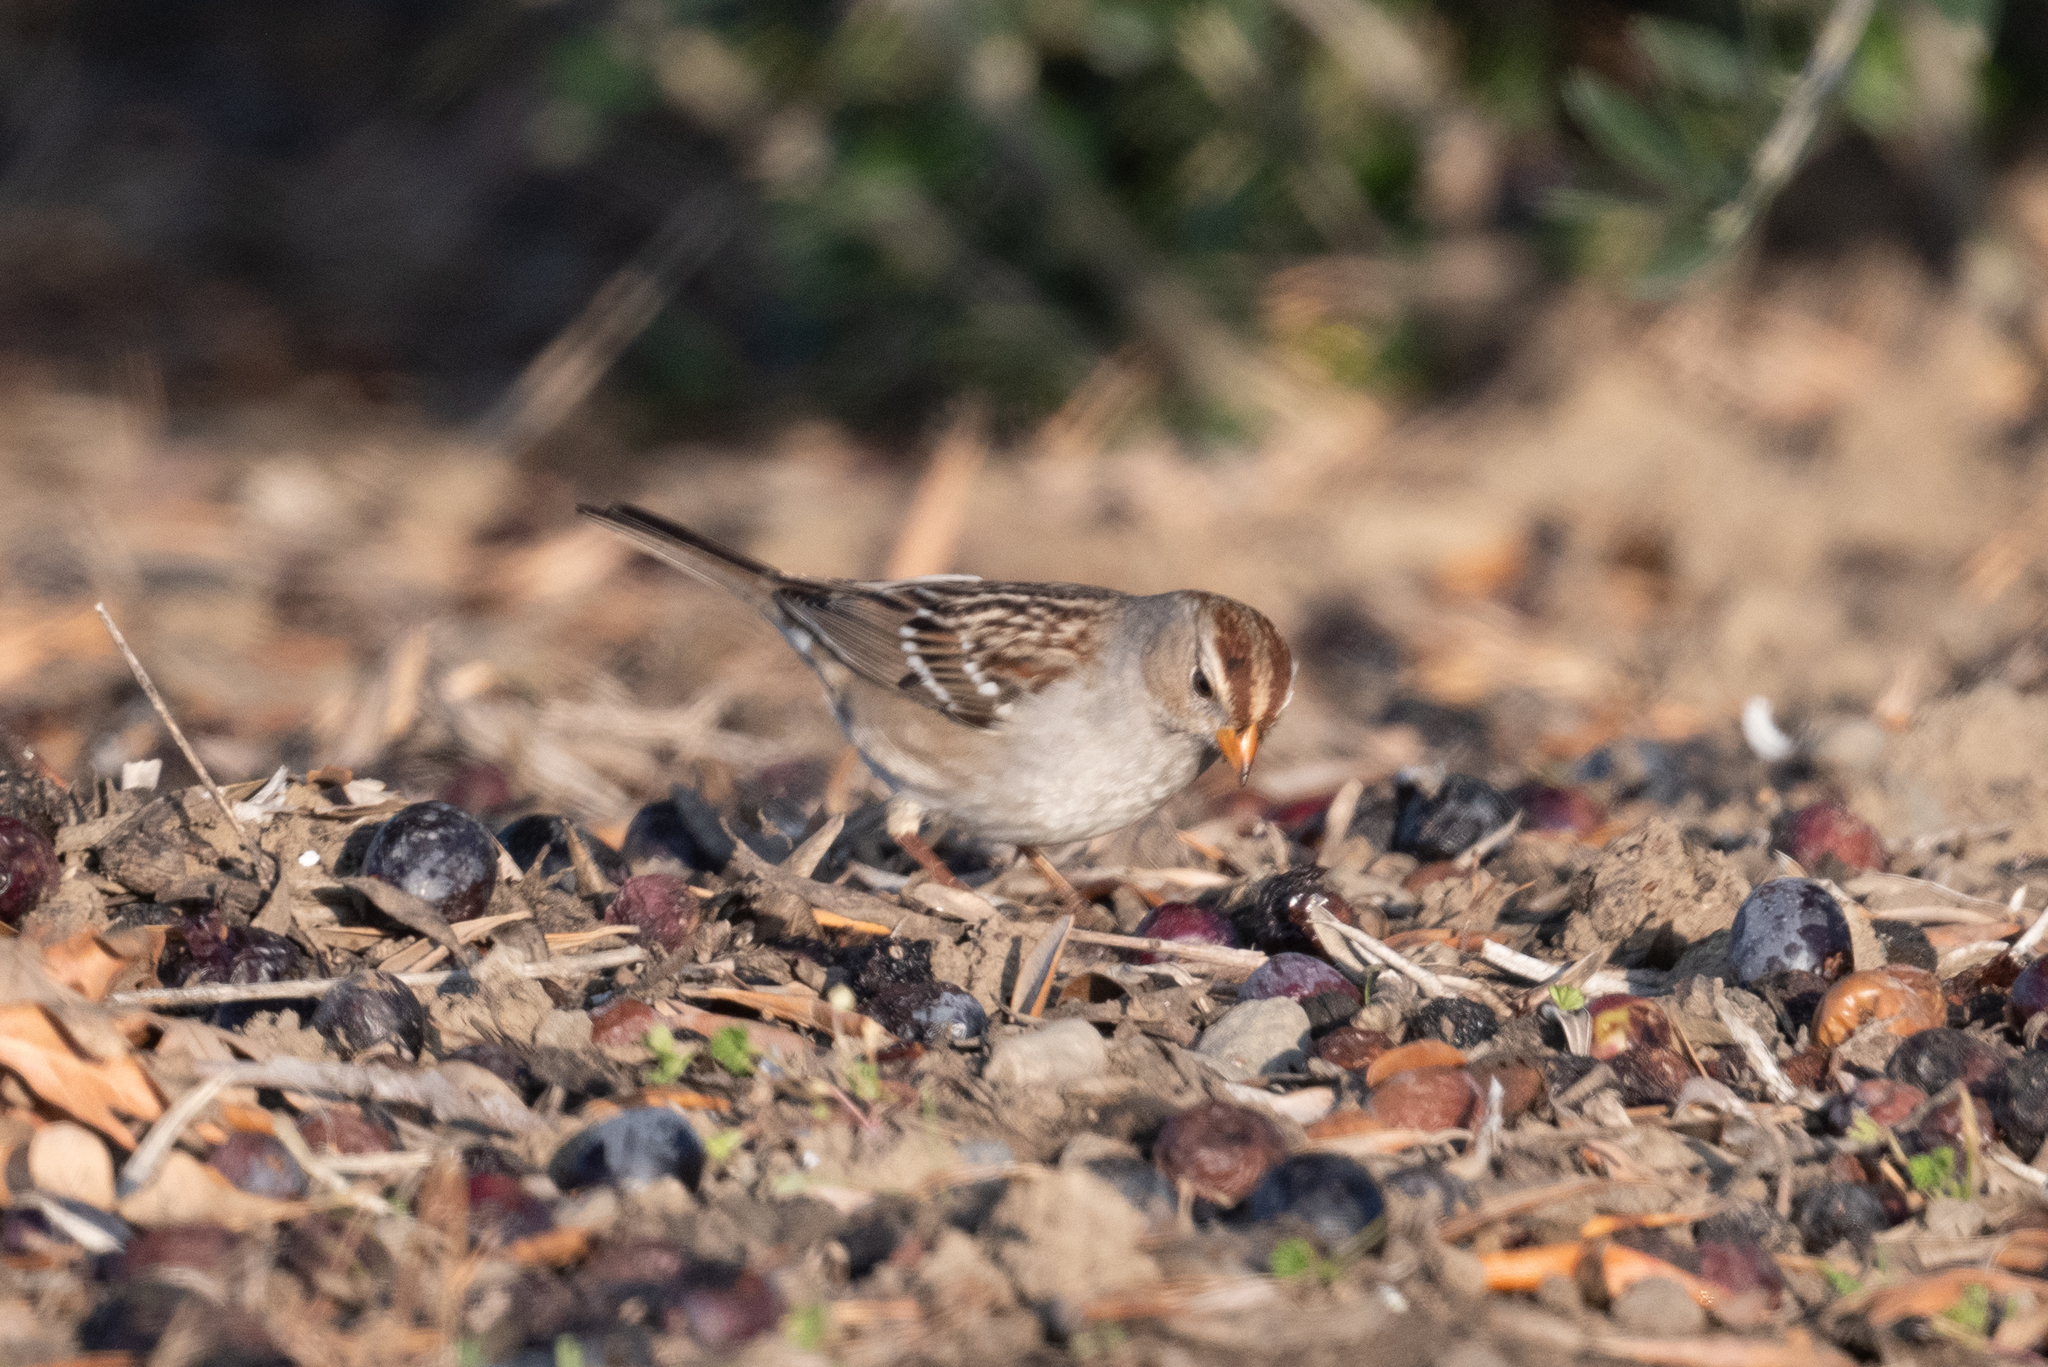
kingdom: Animalia
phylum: Chordata
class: Aves
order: Passeriformes
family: Passerellidae
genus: Zonotrichia
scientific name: Zonotrichia leucophrys
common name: White-crowned sparrow
